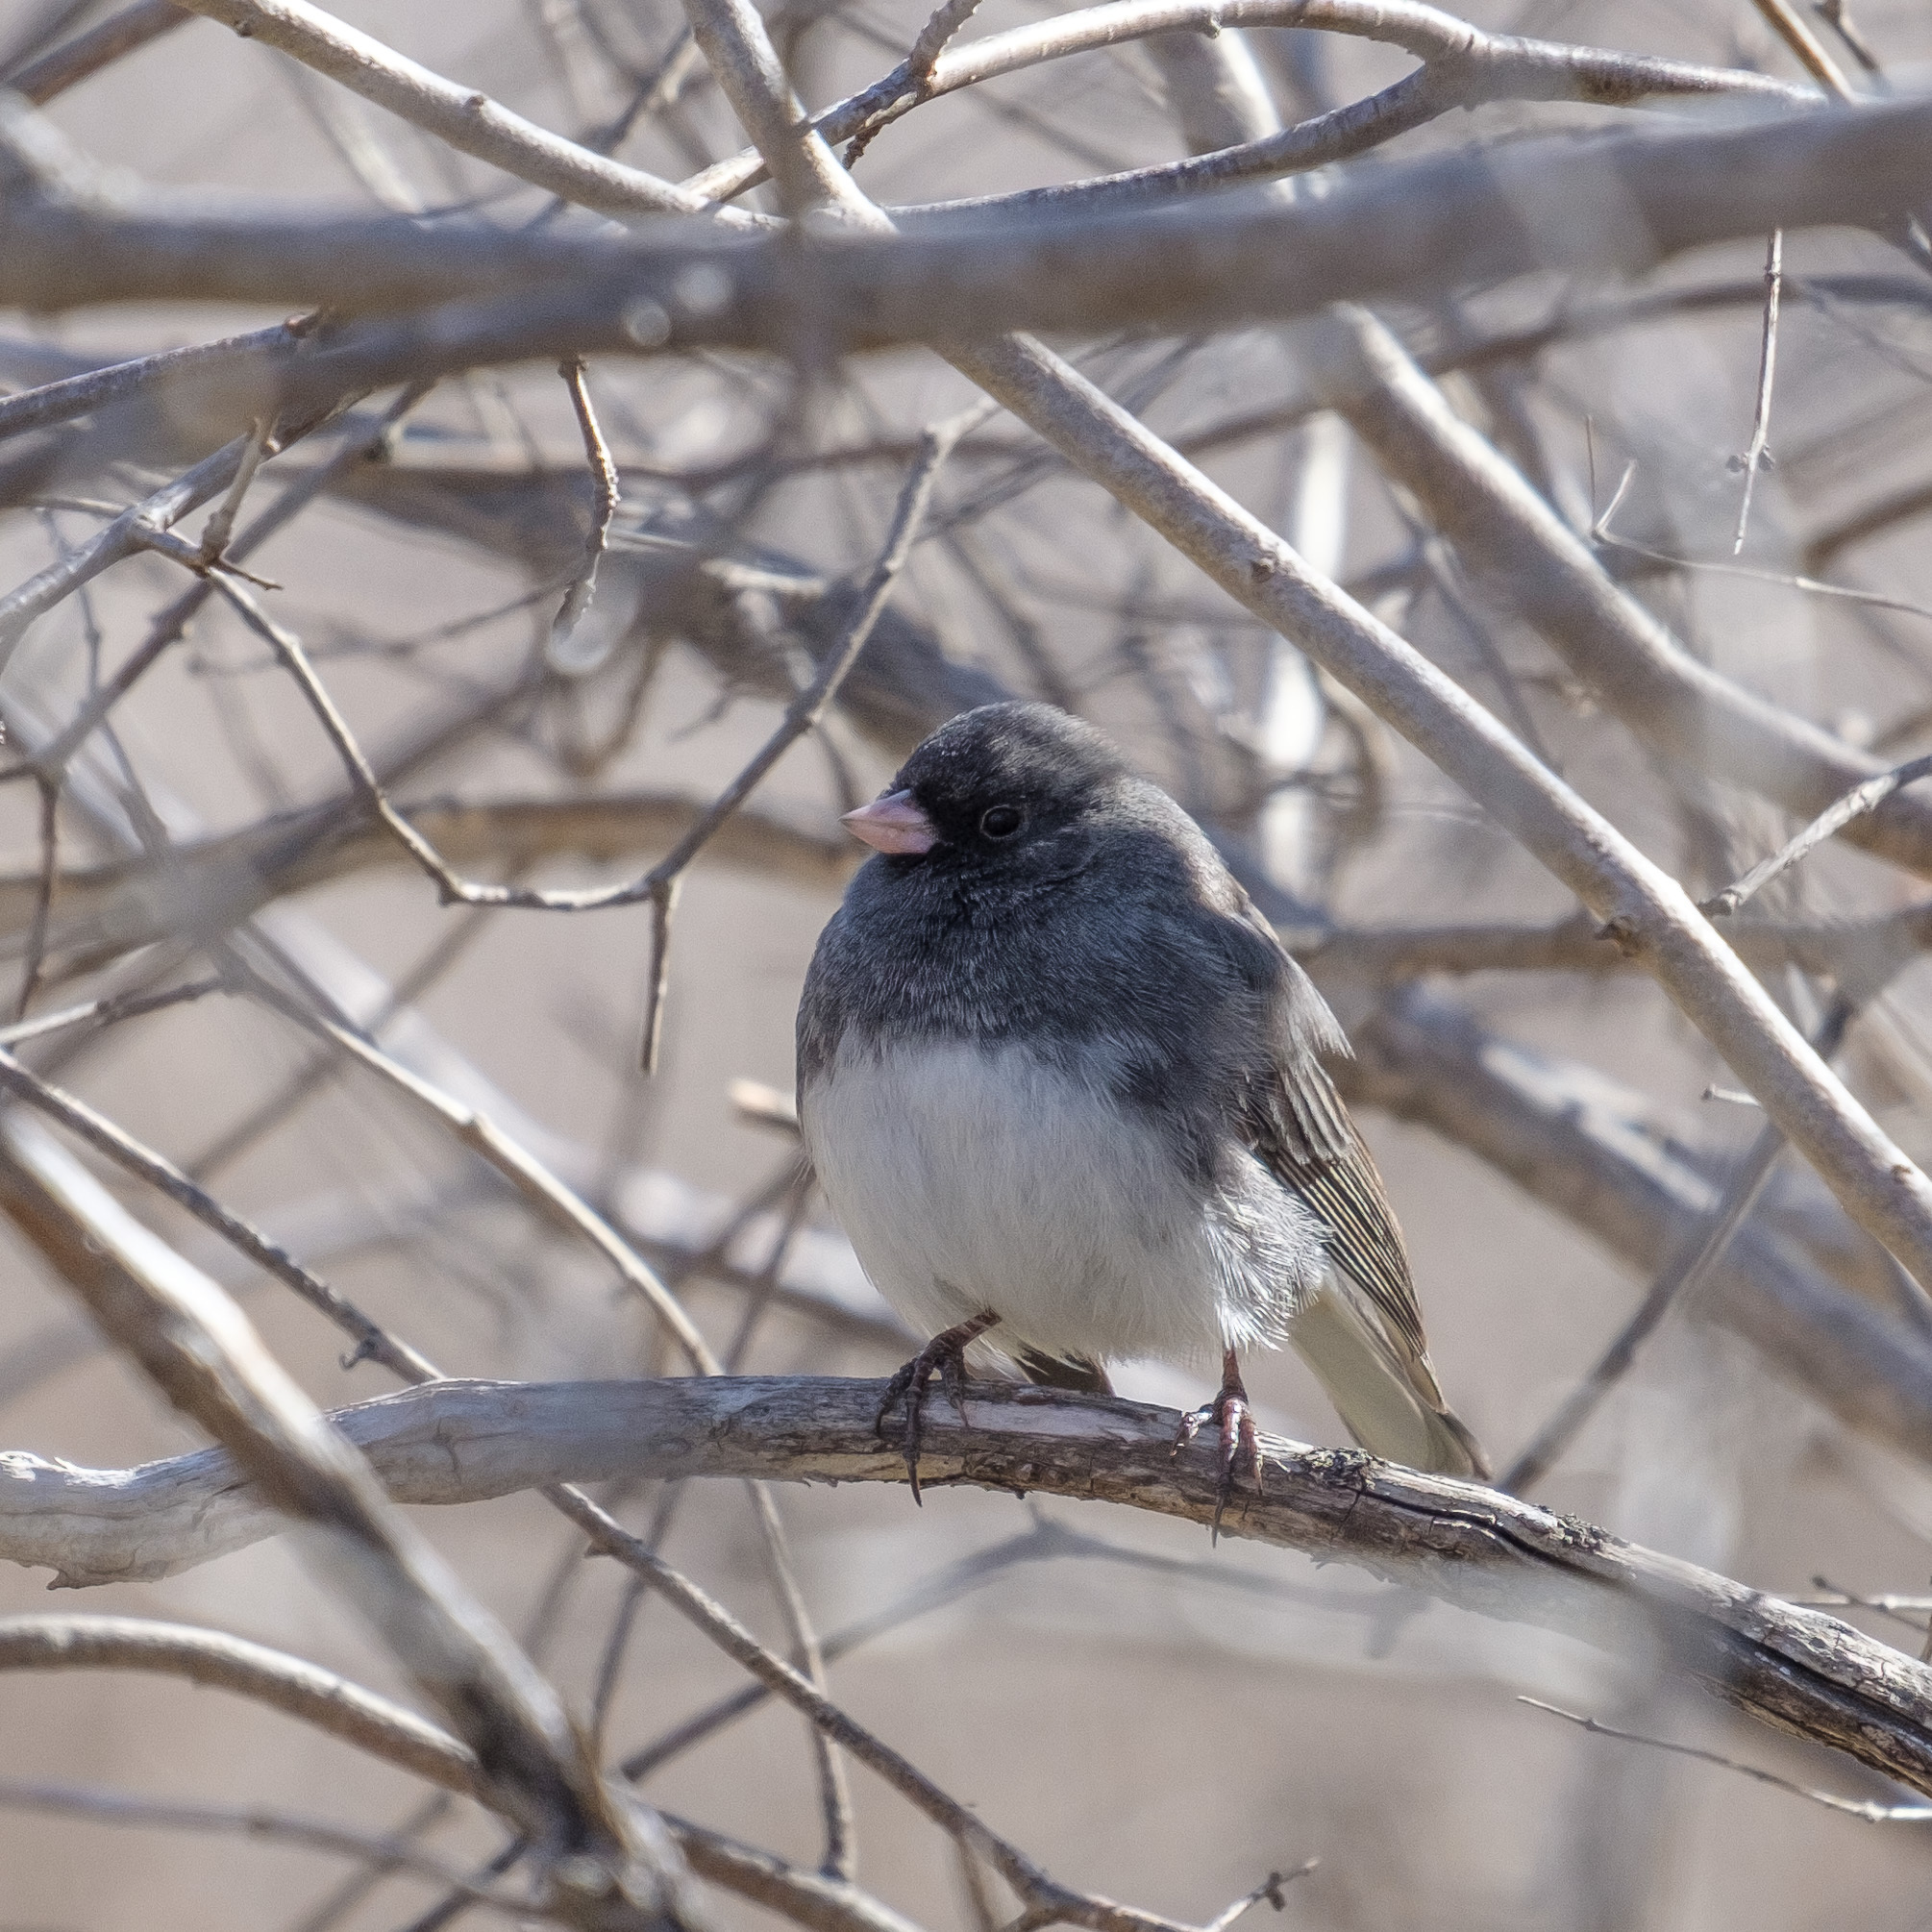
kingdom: Animalia
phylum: Chordata
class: Aves
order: Passeriformes
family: Passerellidae
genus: Junco
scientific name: Junco hyemalis
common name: Dark-eyed junco
